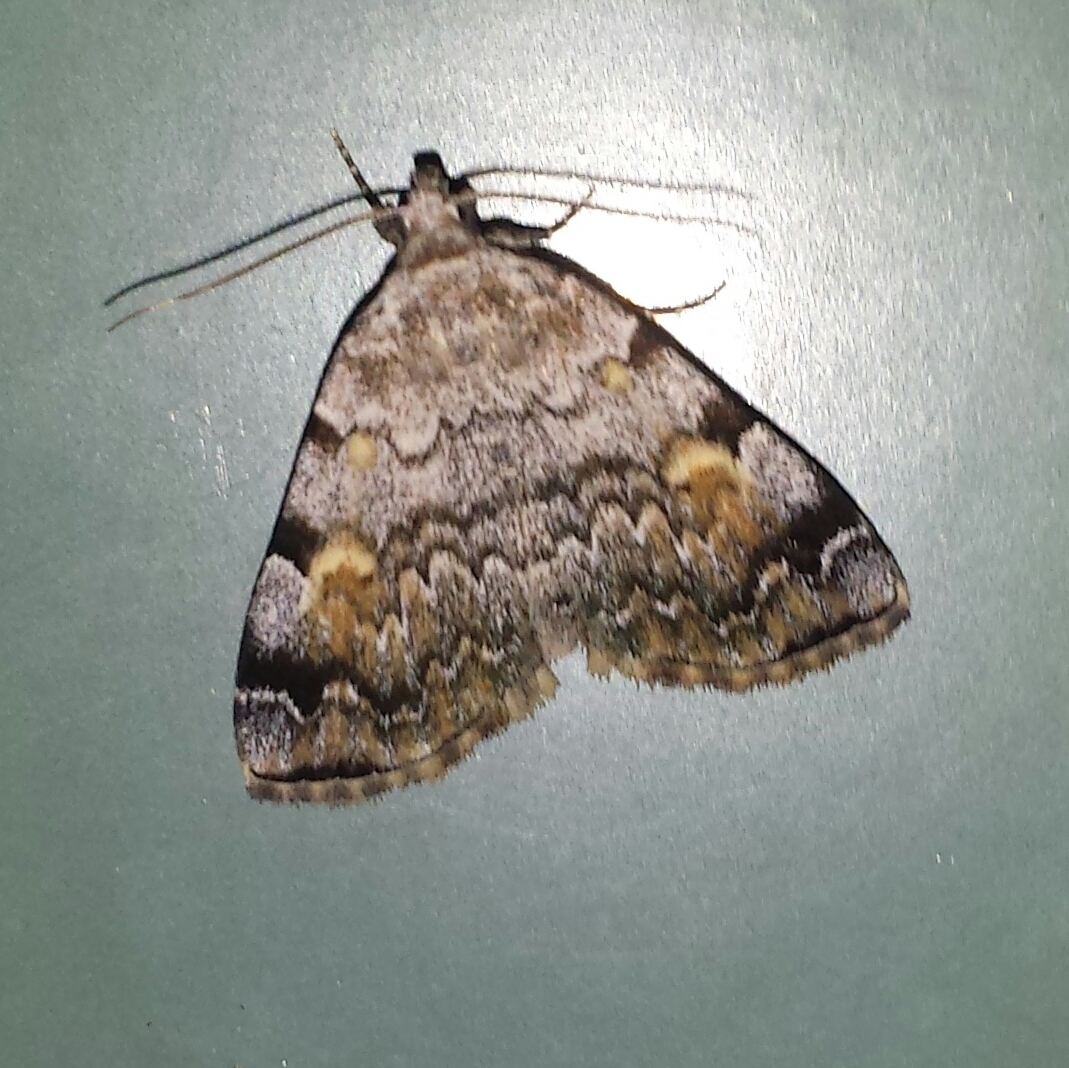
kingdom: Animalia
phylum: Arthropoda
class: Insecta
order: Lepidoptera
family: Erebidae
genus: Idia
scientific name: Idia americalis
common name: American idia moth
